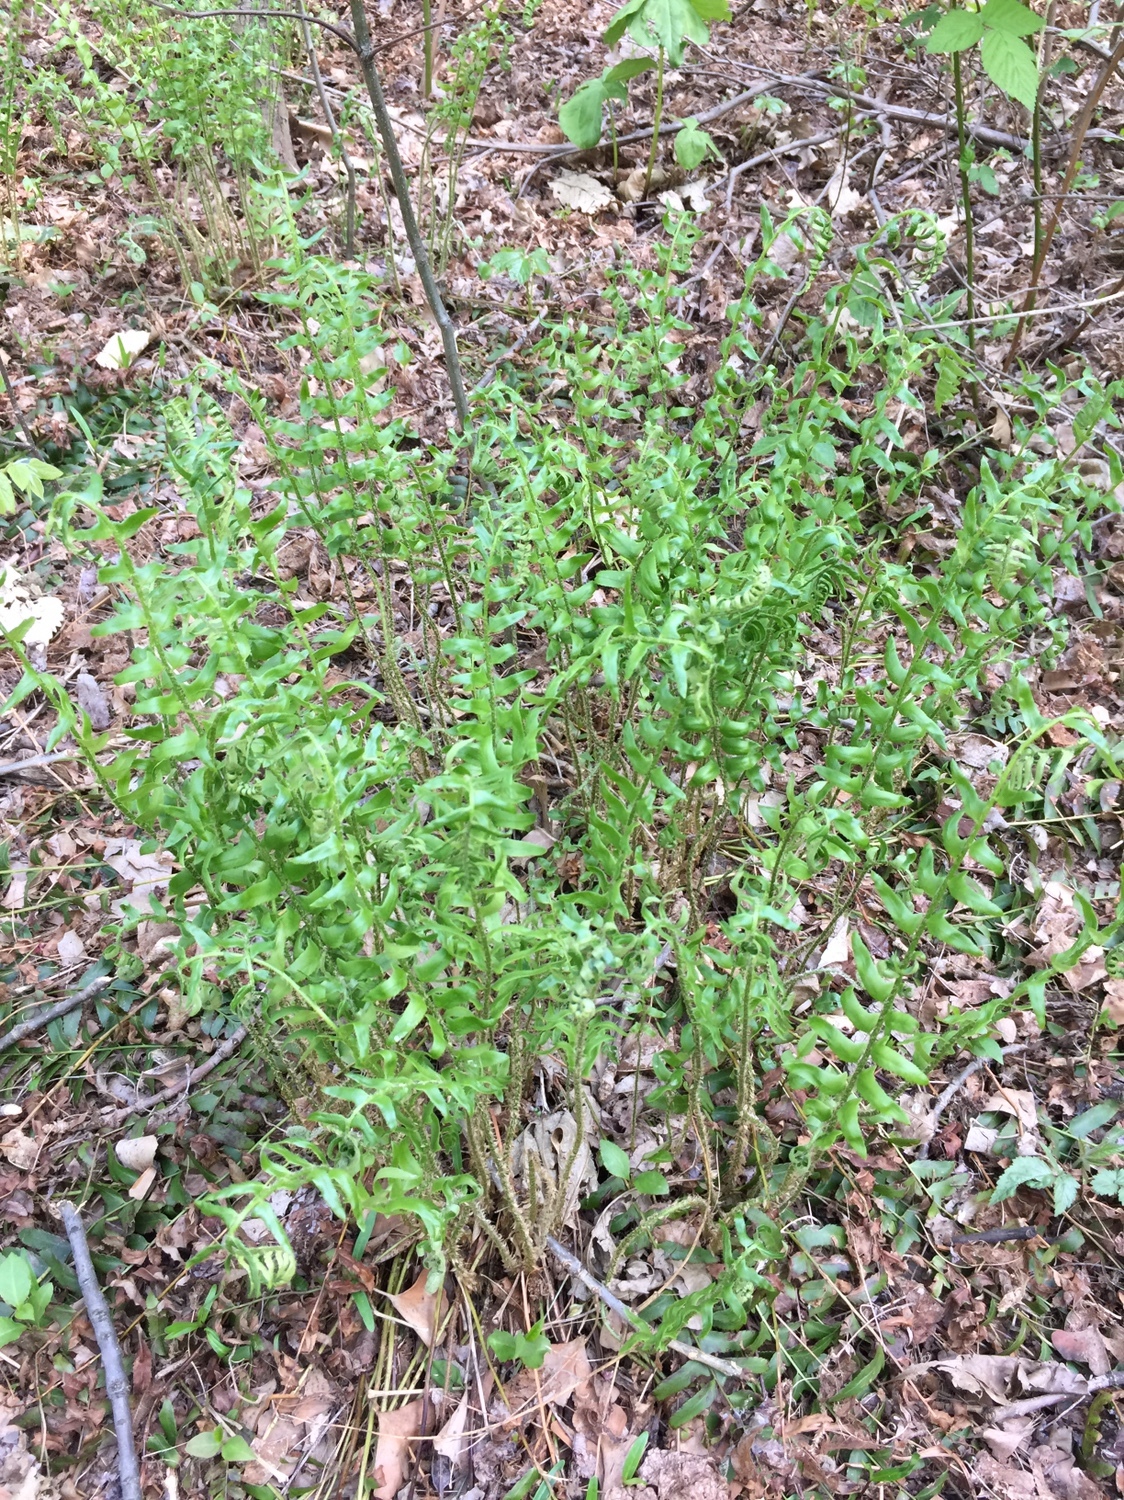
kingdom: Plantae
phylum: Tracheophyta
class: Polypodiopsida
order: Polypodiales
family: Dryopteridaceae
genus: Polystichum
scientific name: Polystichum acrostichoides
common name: Christmas fern
